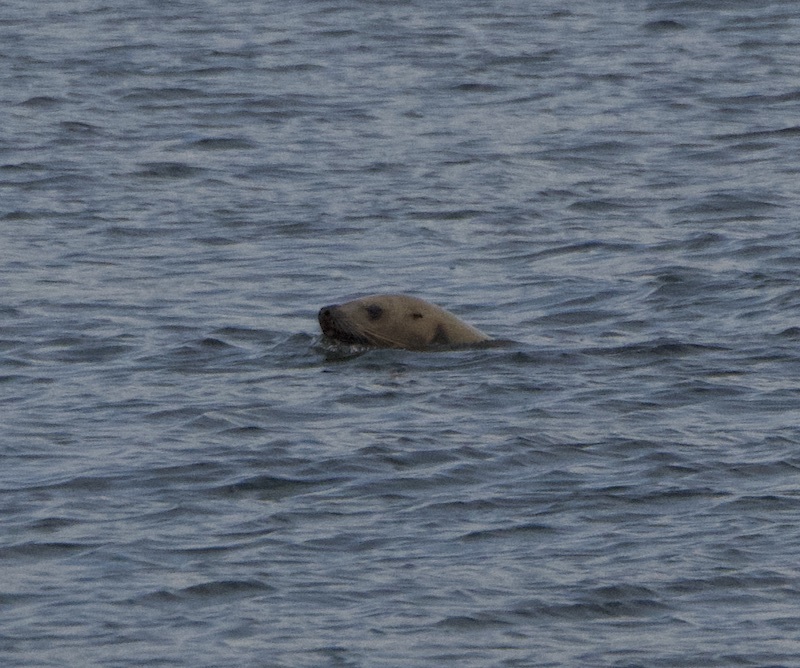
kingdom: Animalia
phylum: Chordata
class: Mammalia
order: Carnivora
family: Otariidae
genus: Eumetopias
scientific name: Eumetopias jubatus
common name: Steller sea lion
